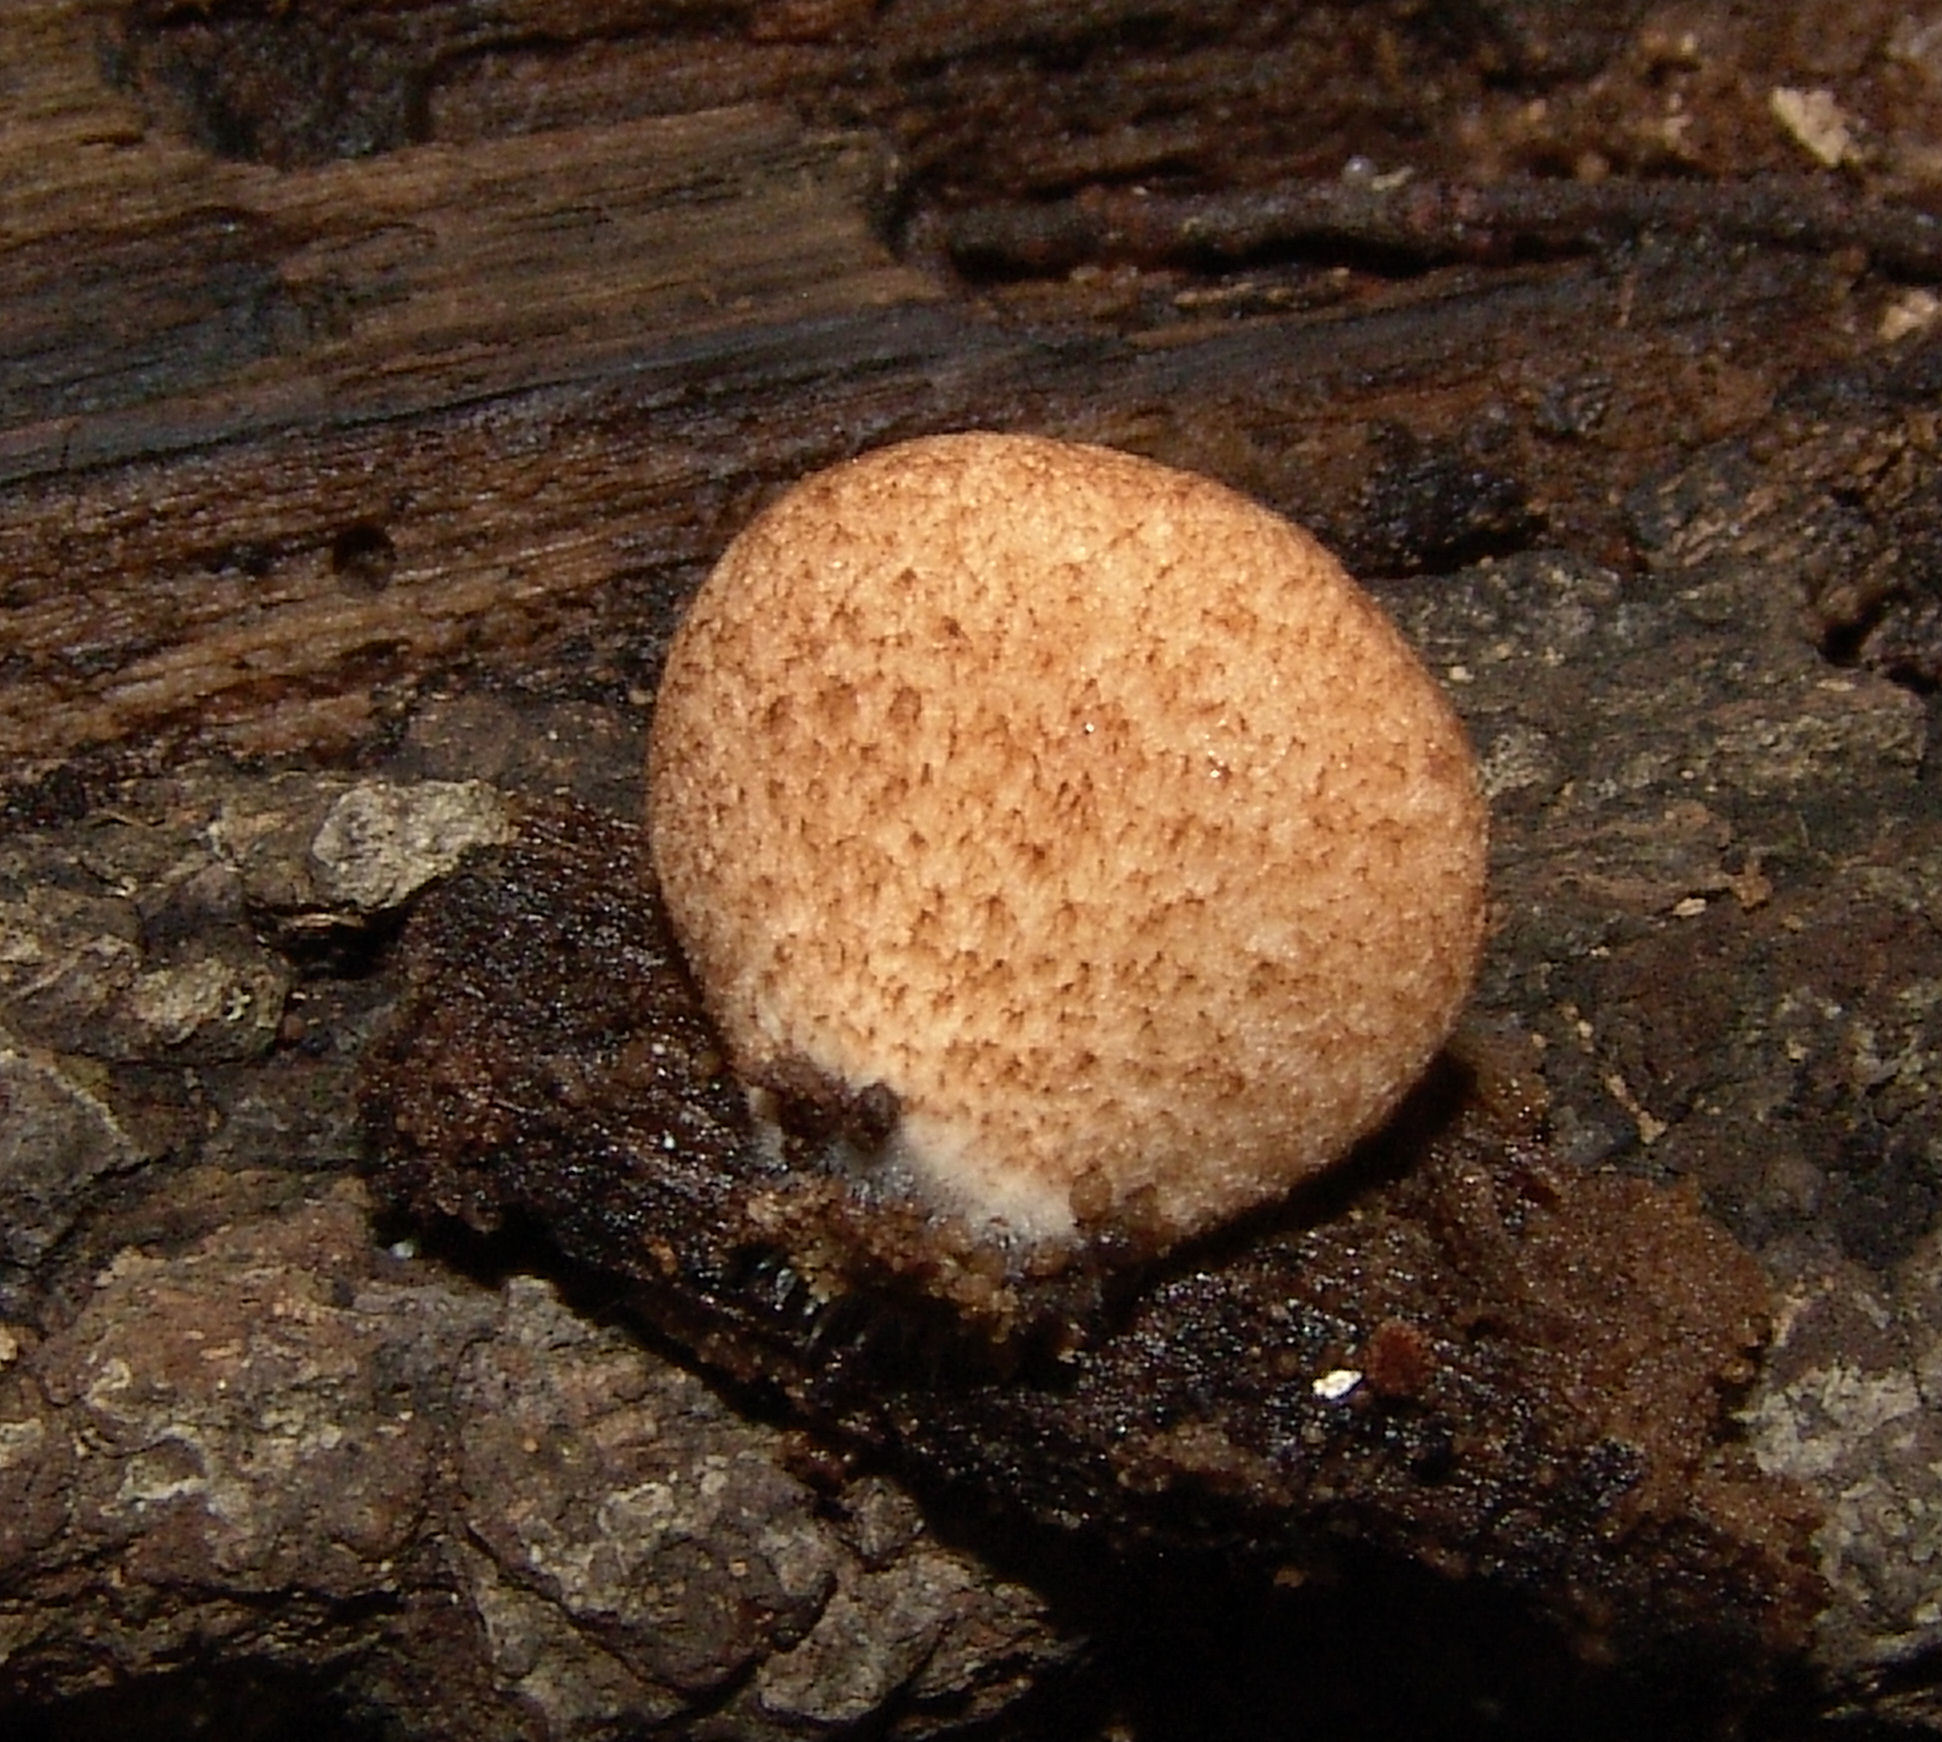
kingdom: Fungi
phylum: Basidiomycota
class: Agaricomycetes
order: Agaricales
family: Crepidotaceae
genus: Crepidotus
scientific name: Crepidotus crocophyllus
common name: Saffron oysterling
